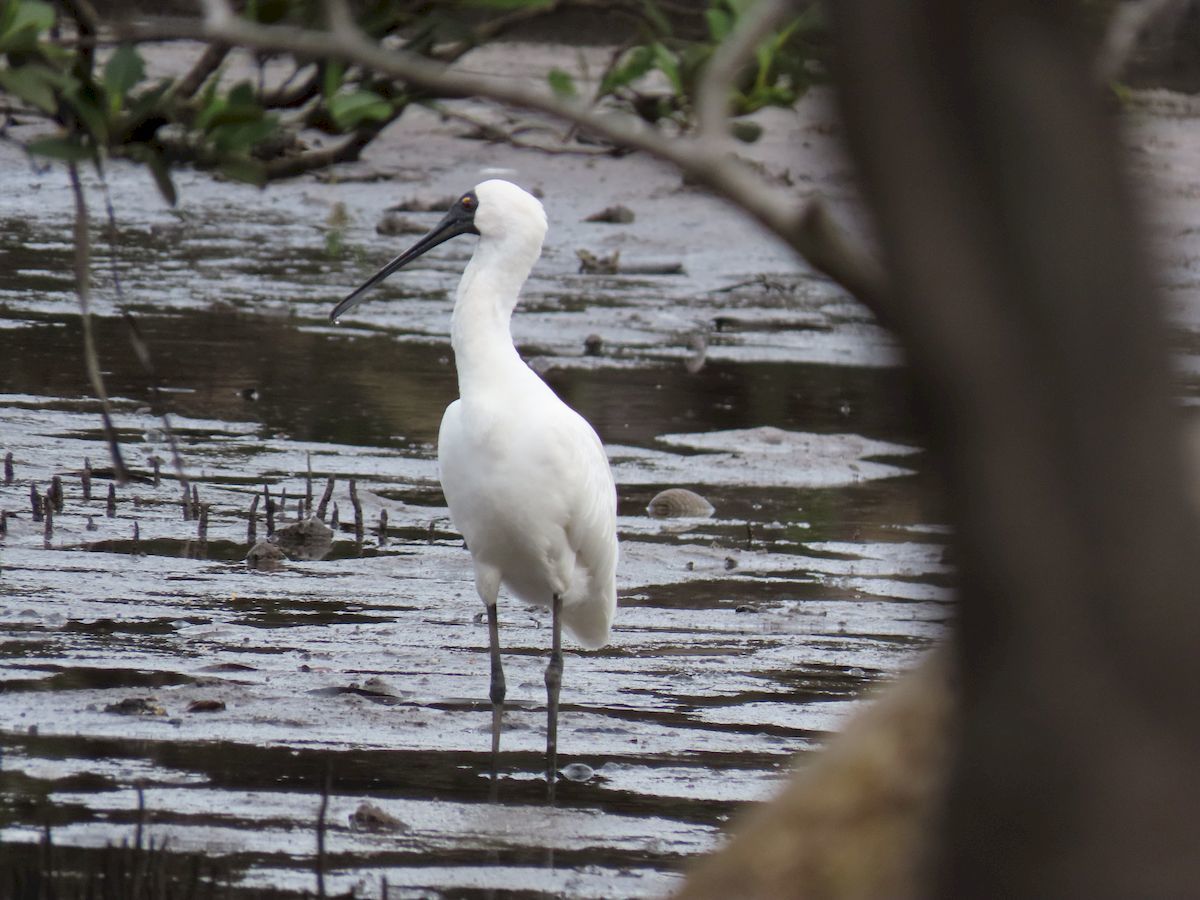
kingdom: Animalia
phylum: Chordata
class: Aves
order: Pelecaniformes
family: Threskiornithidae
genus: Platalea
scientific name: Platalea regia
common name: Royal spoonbill
